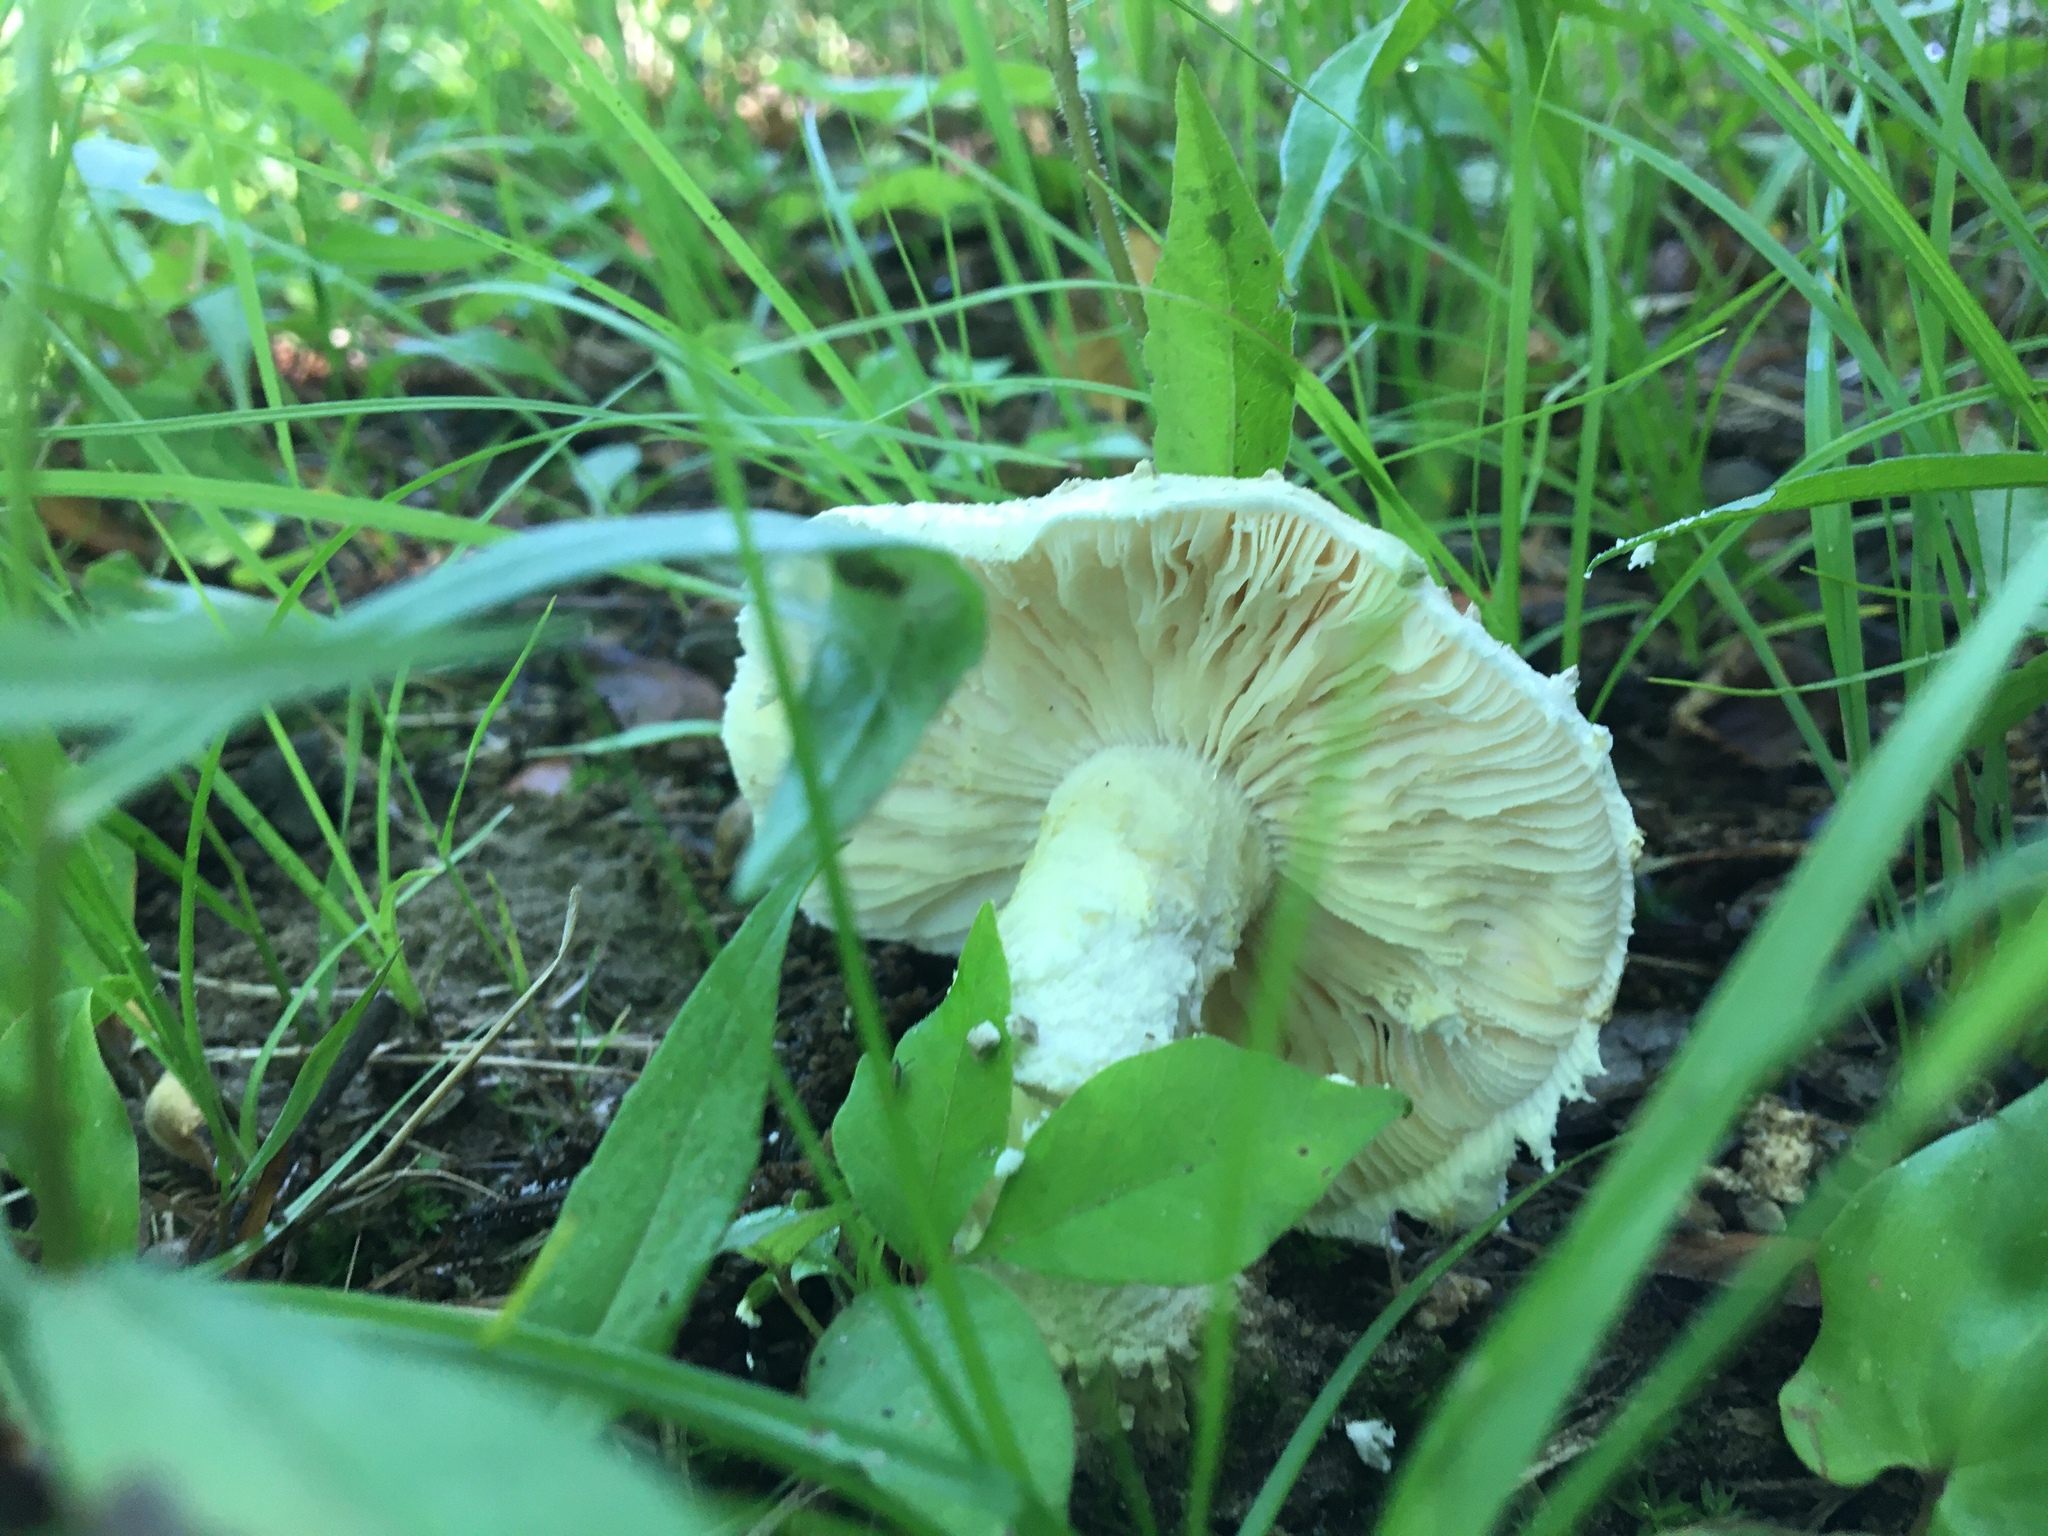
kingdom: Fungi
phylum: Basidiomycota
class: Agaricomycetes
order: Agaricales
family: Amanitaceae
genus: Amanita
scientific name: Amanita
